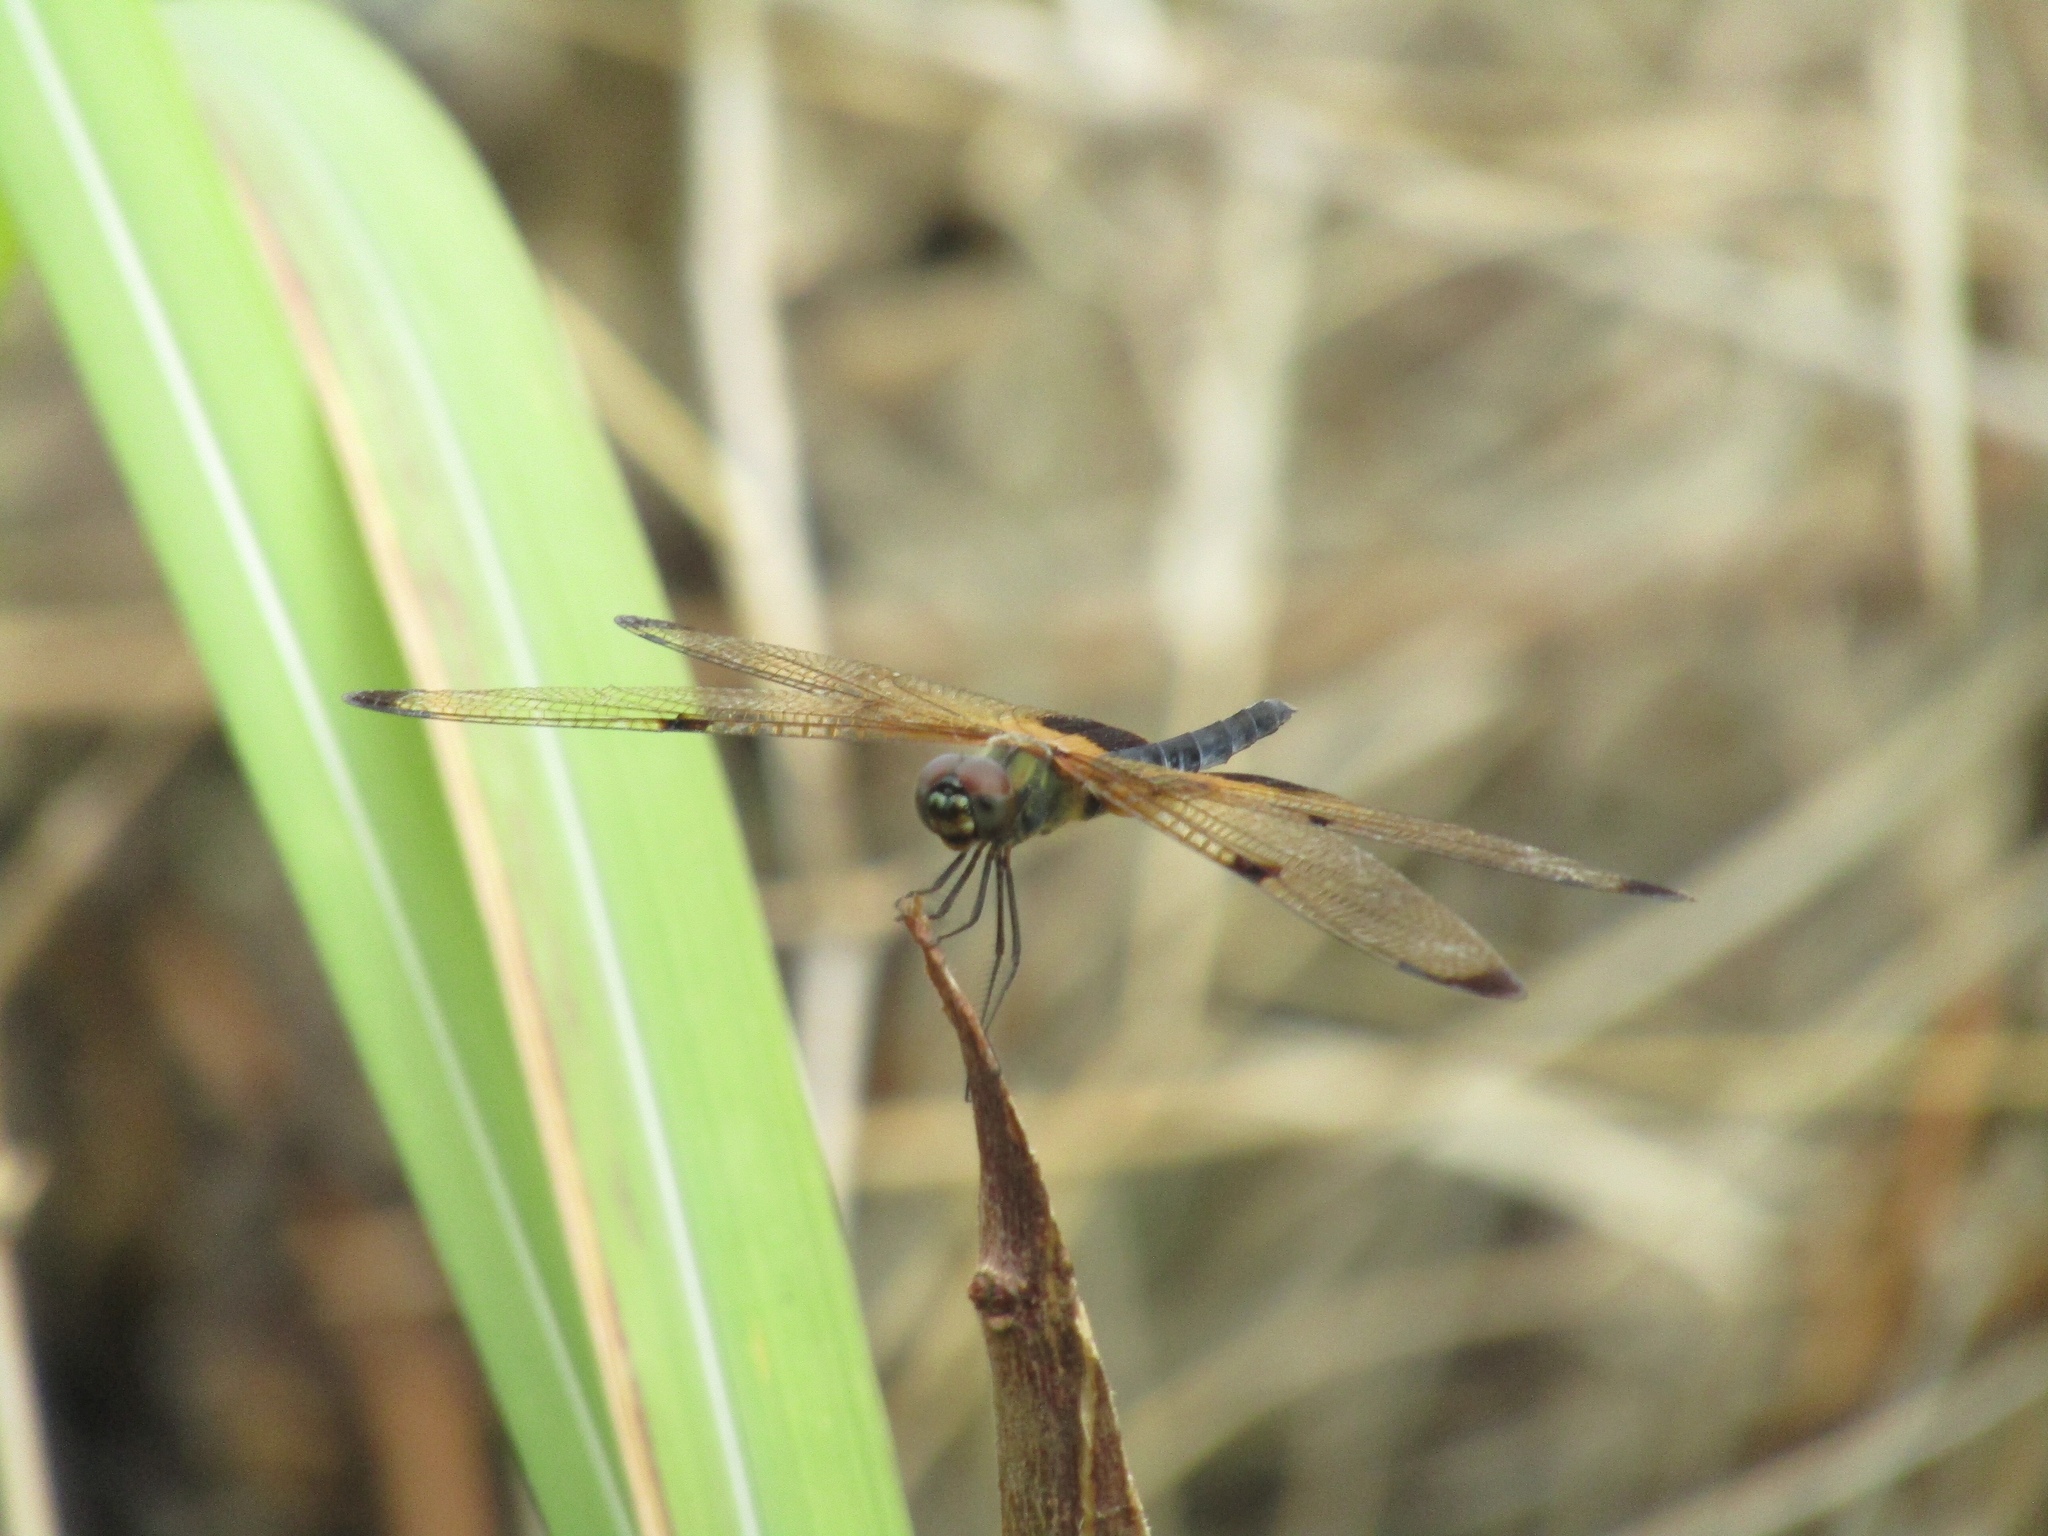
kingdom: Animalia
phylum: Arthropoda
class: Insecta
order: Odonata
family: Libellulidae
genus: Rhyothemis
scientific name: Rhyothemis phyllis
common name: Yellow-barred flutterer
